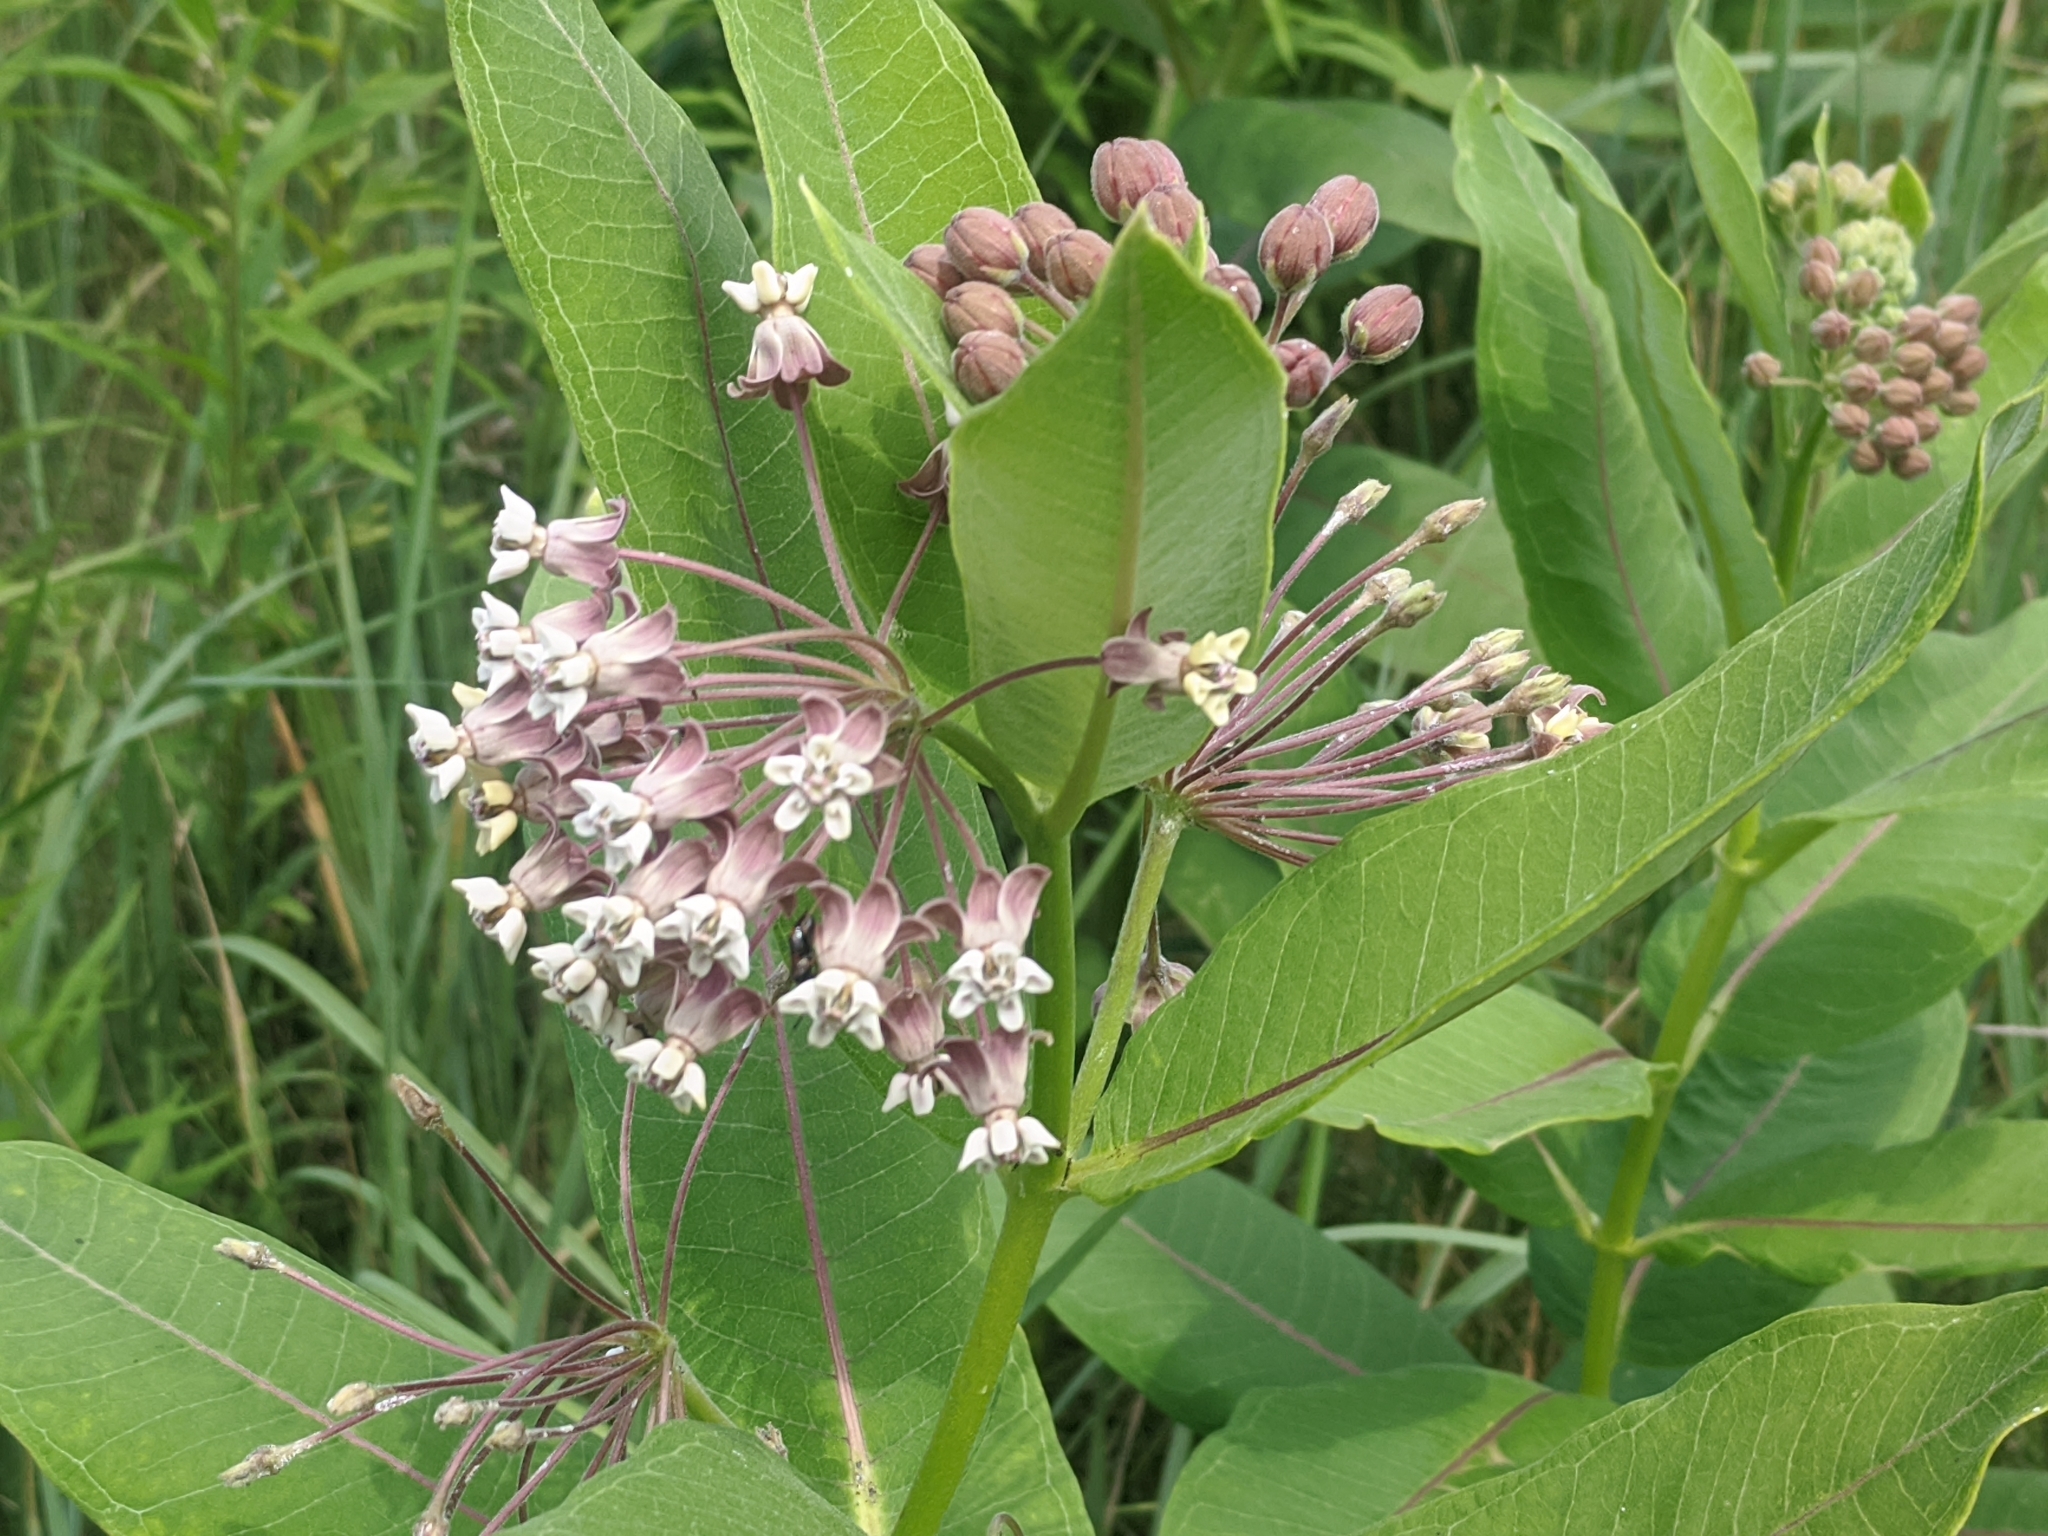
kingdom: Plantae
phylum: Tracheophyta
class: Magnoliopsida
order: Gentianales
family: Apocynaceae
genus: Asclepias
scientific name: Asclepias syriaca
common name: Common milkweed
